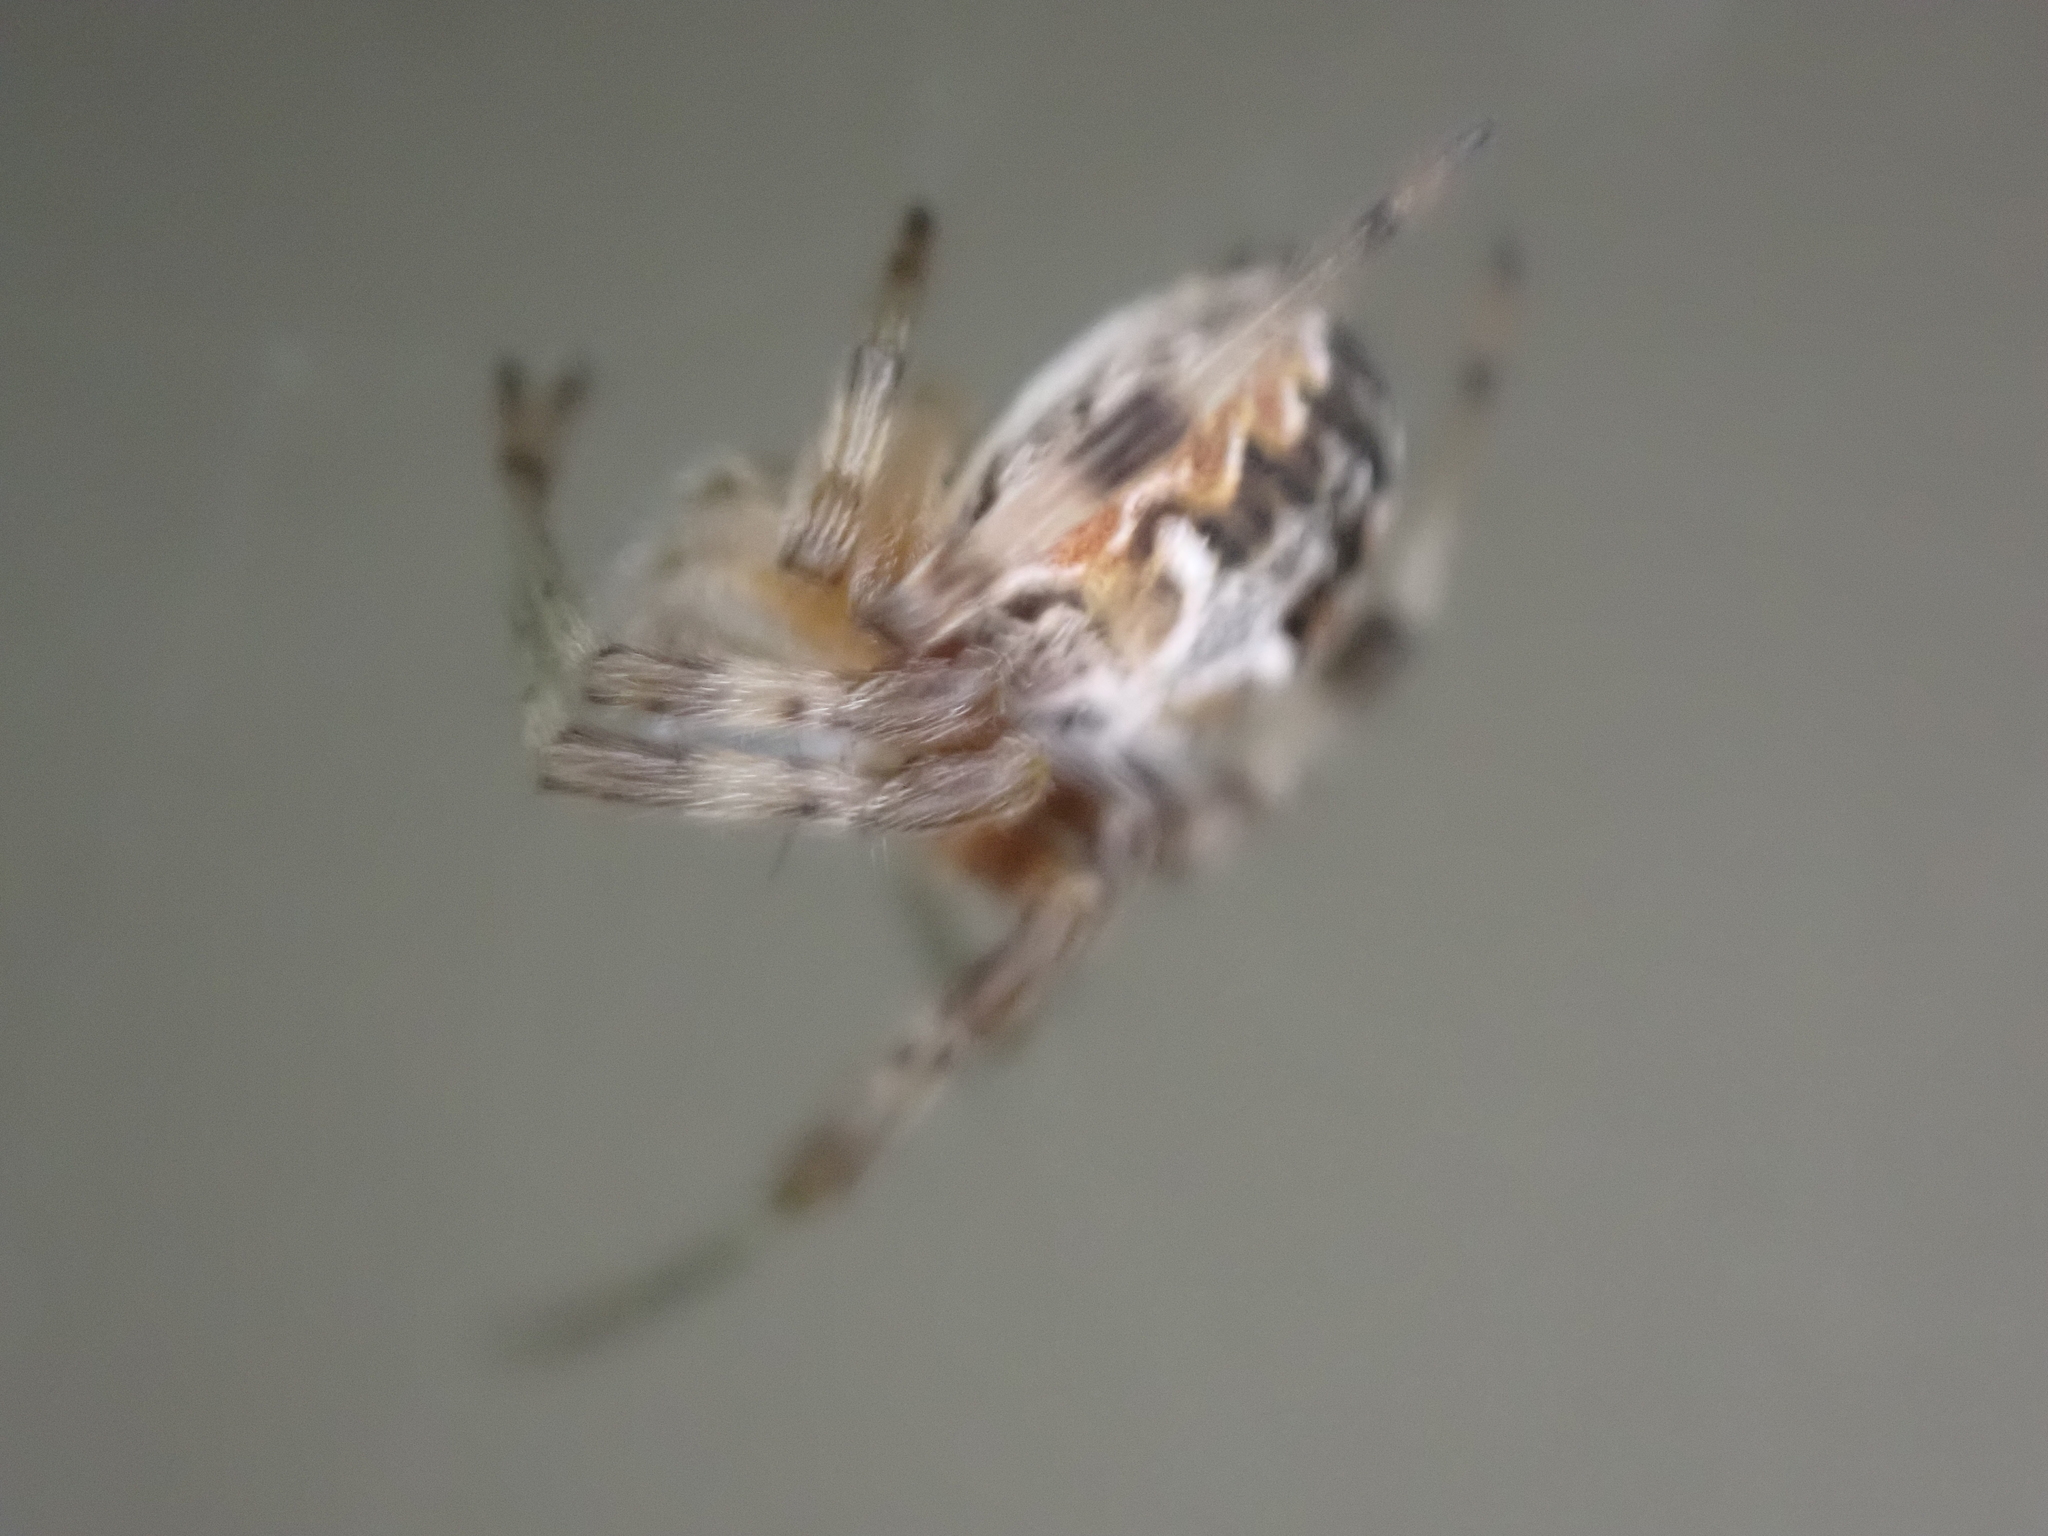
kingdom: Animalia
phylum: Arthropoda
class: Arachnida
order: Araneae
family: Araneidae
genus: Metepeira
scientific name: Metepeira labyrinthea
